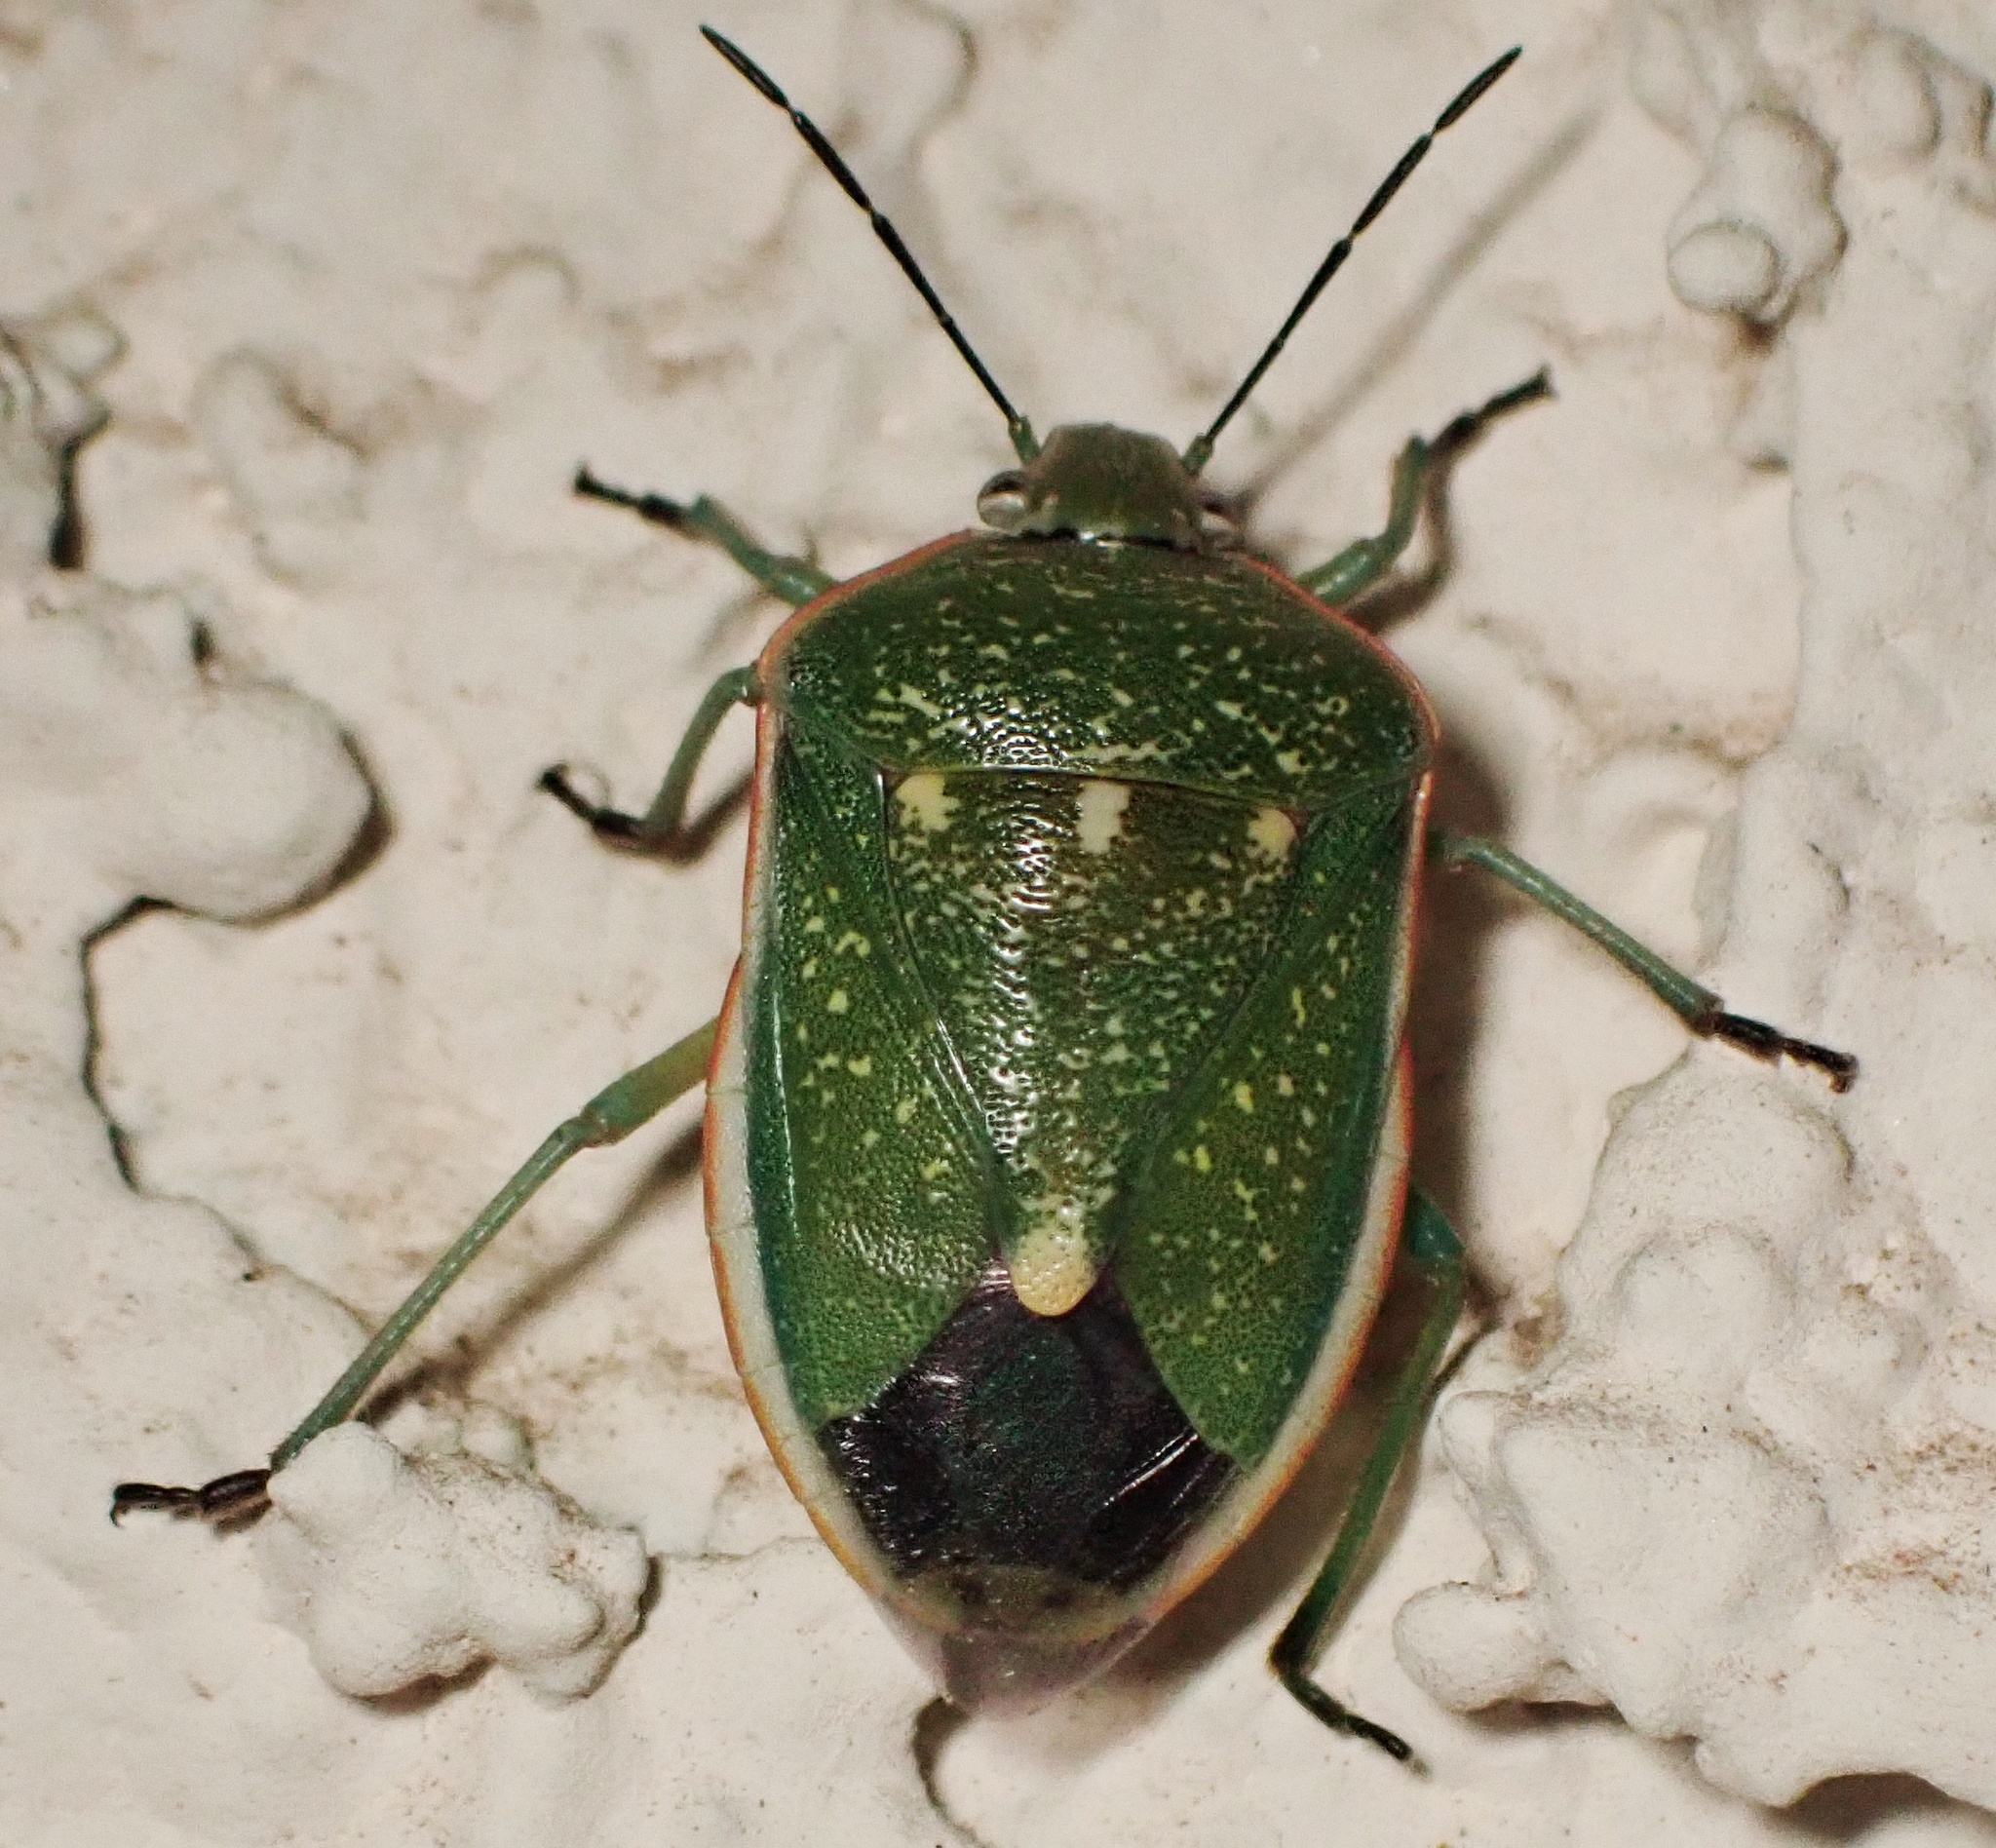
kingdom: Animalia
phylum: Arthropoda
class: Insecta
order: Hemiptera
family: Pentatomidae
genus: Chlorochroa
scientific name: Chlorochroa sayi
